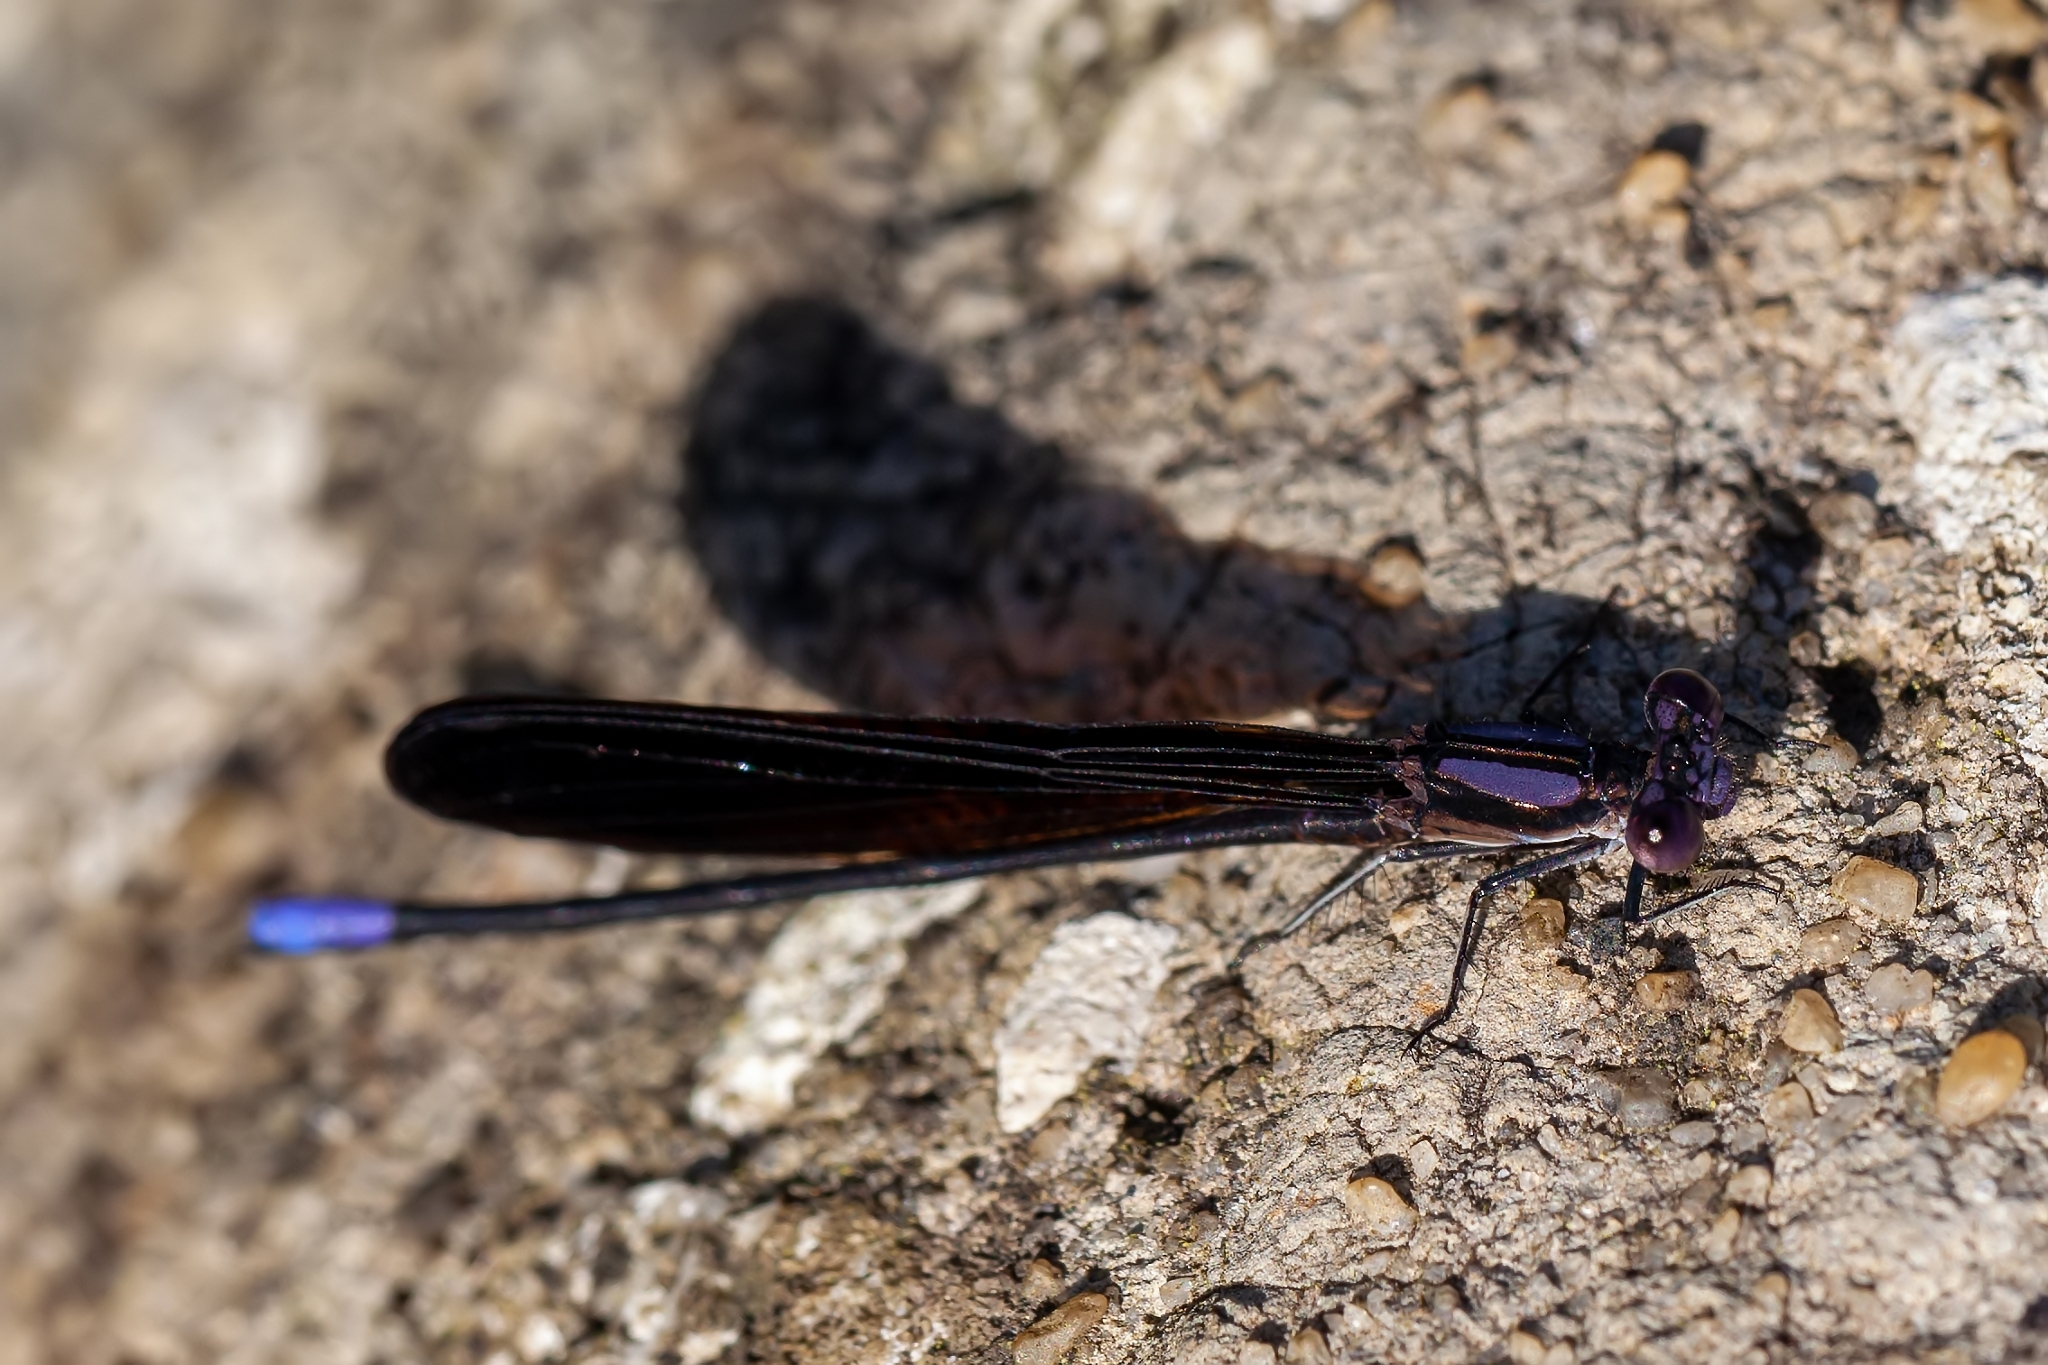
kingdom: Animalia
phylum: Arthropoda
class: Insecta
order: Odonata
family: Coenagrionidae
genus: Argia
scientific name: Argia fumipennis
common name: Variable dancer
